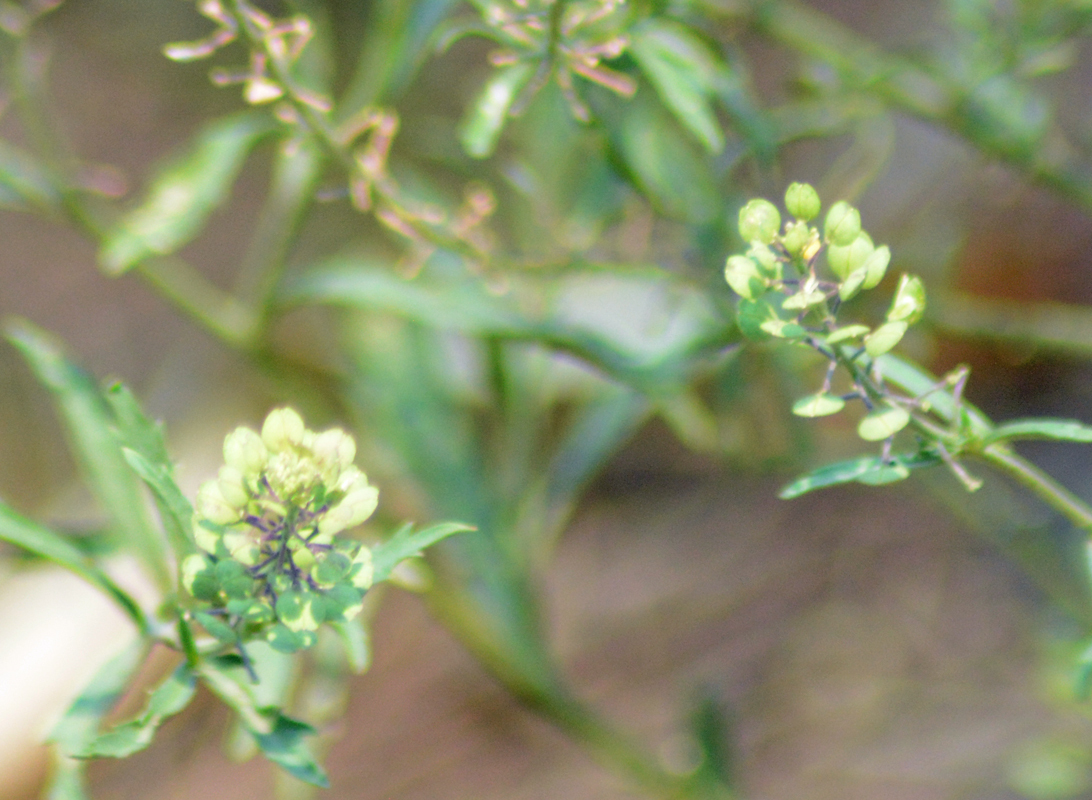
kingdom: Plantae
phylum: Tracheophyta
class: Magnoliopsida
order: Brassicales
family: Brassicaceae
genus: Lepidium
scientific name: Lepidium virginicum
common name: Least pepperwort
